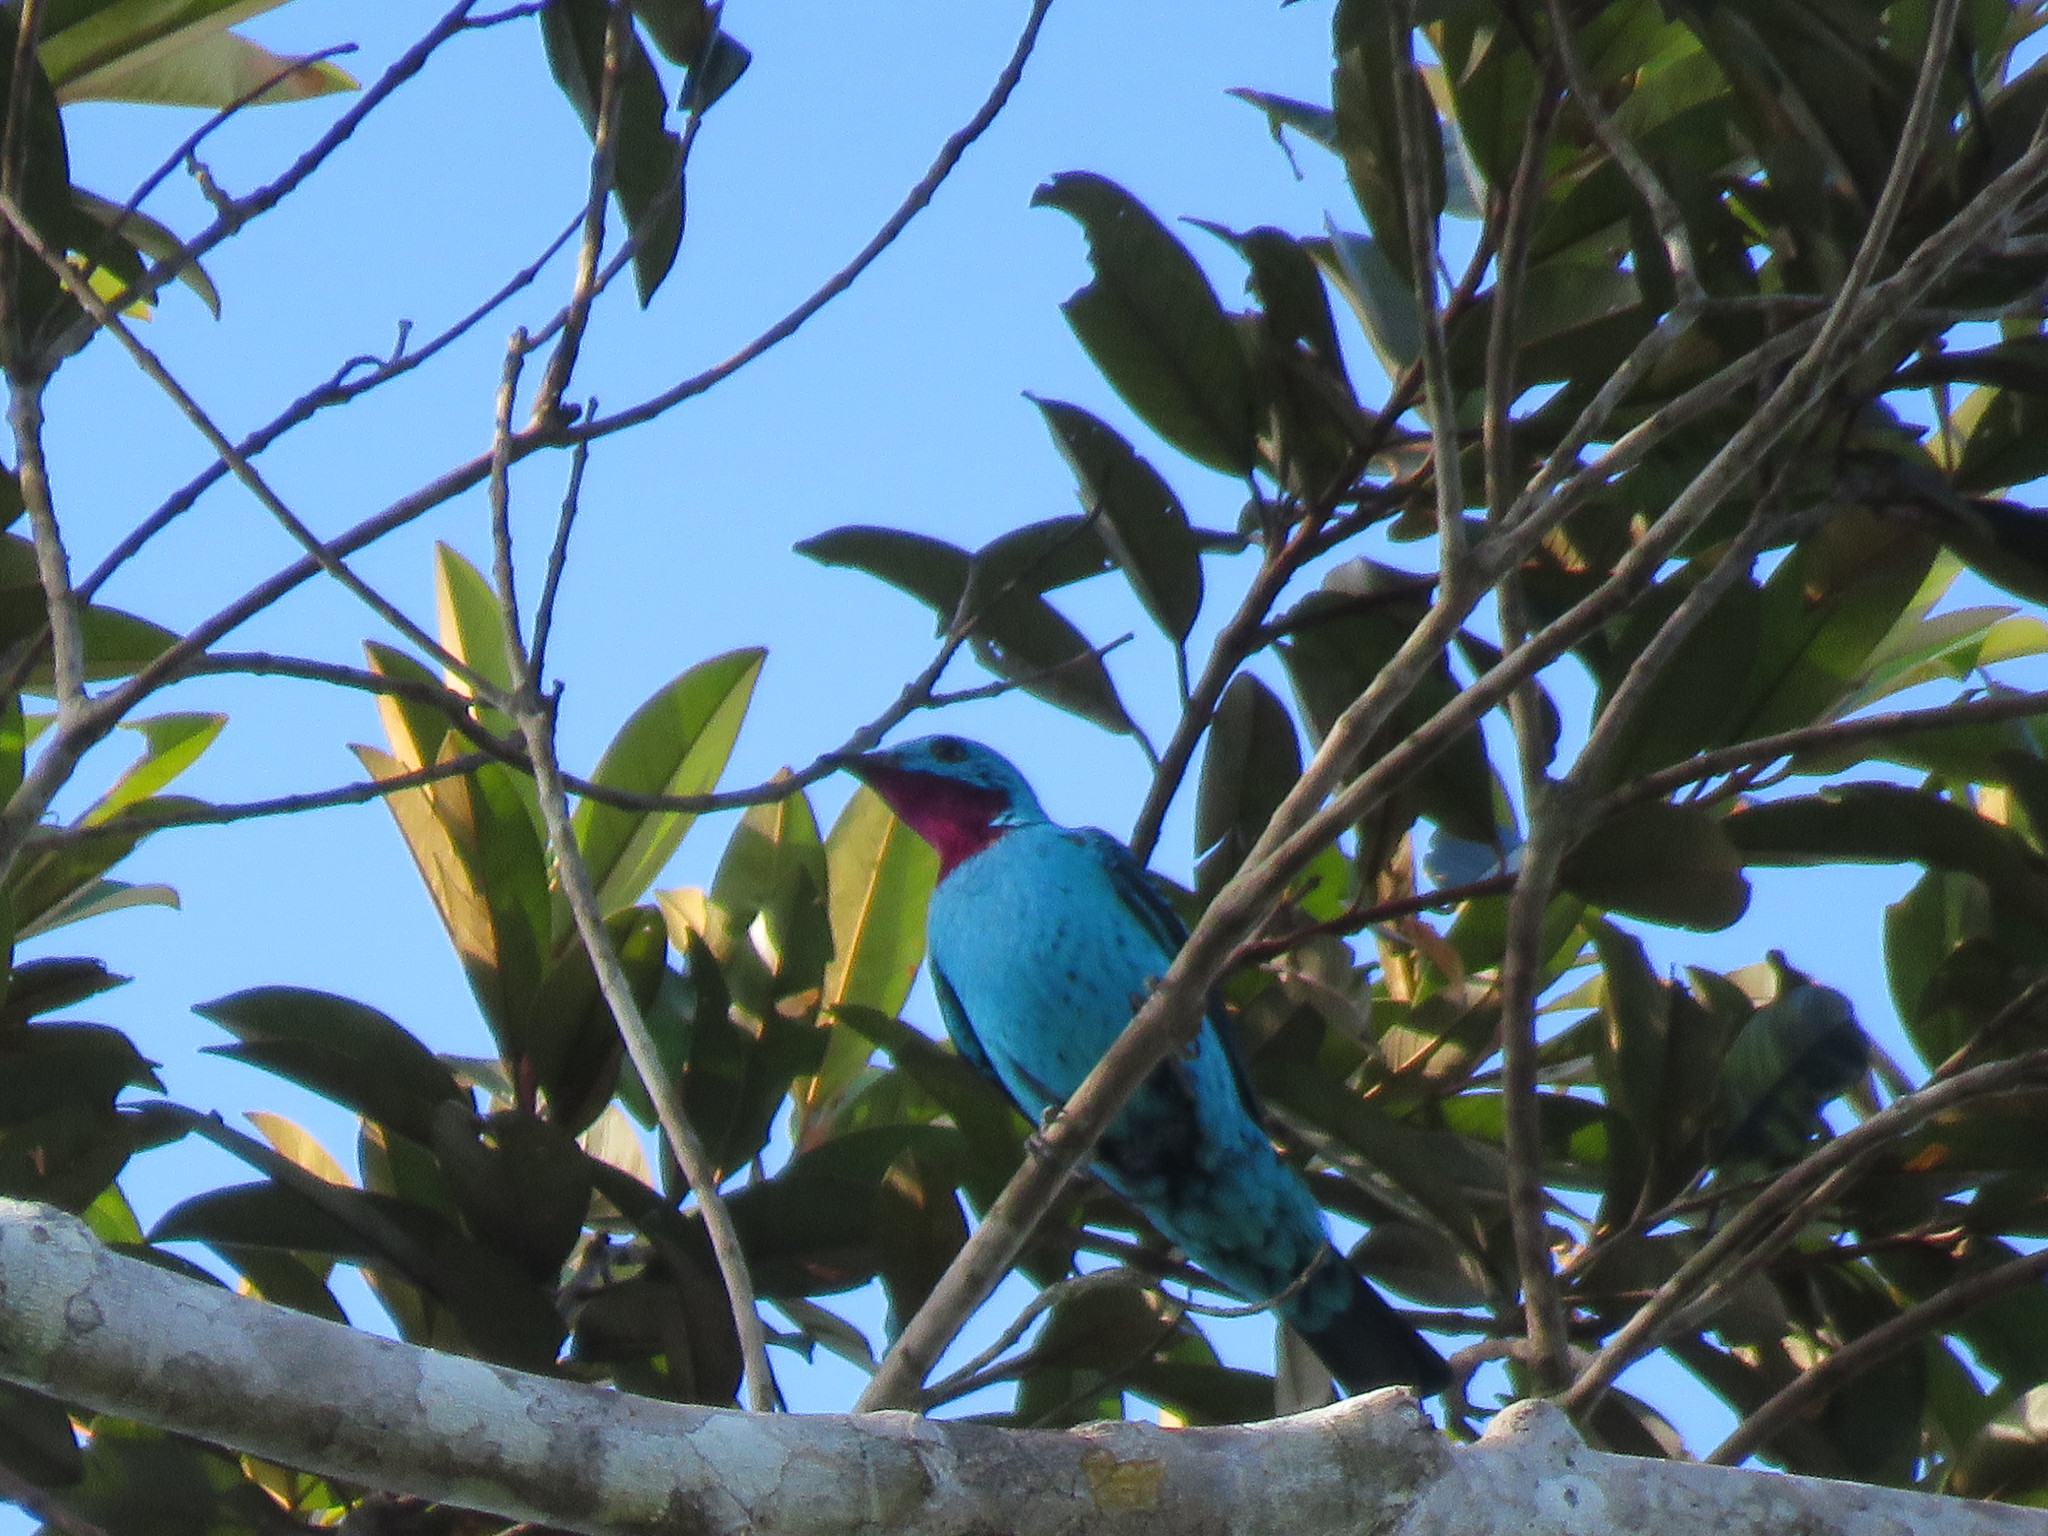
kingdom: Animalia
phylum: Chordata
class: Aves
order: Passeriformes
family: Cotingidae
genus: Cotinga
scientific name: Cotinga cayana
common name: Spangled cotinga
